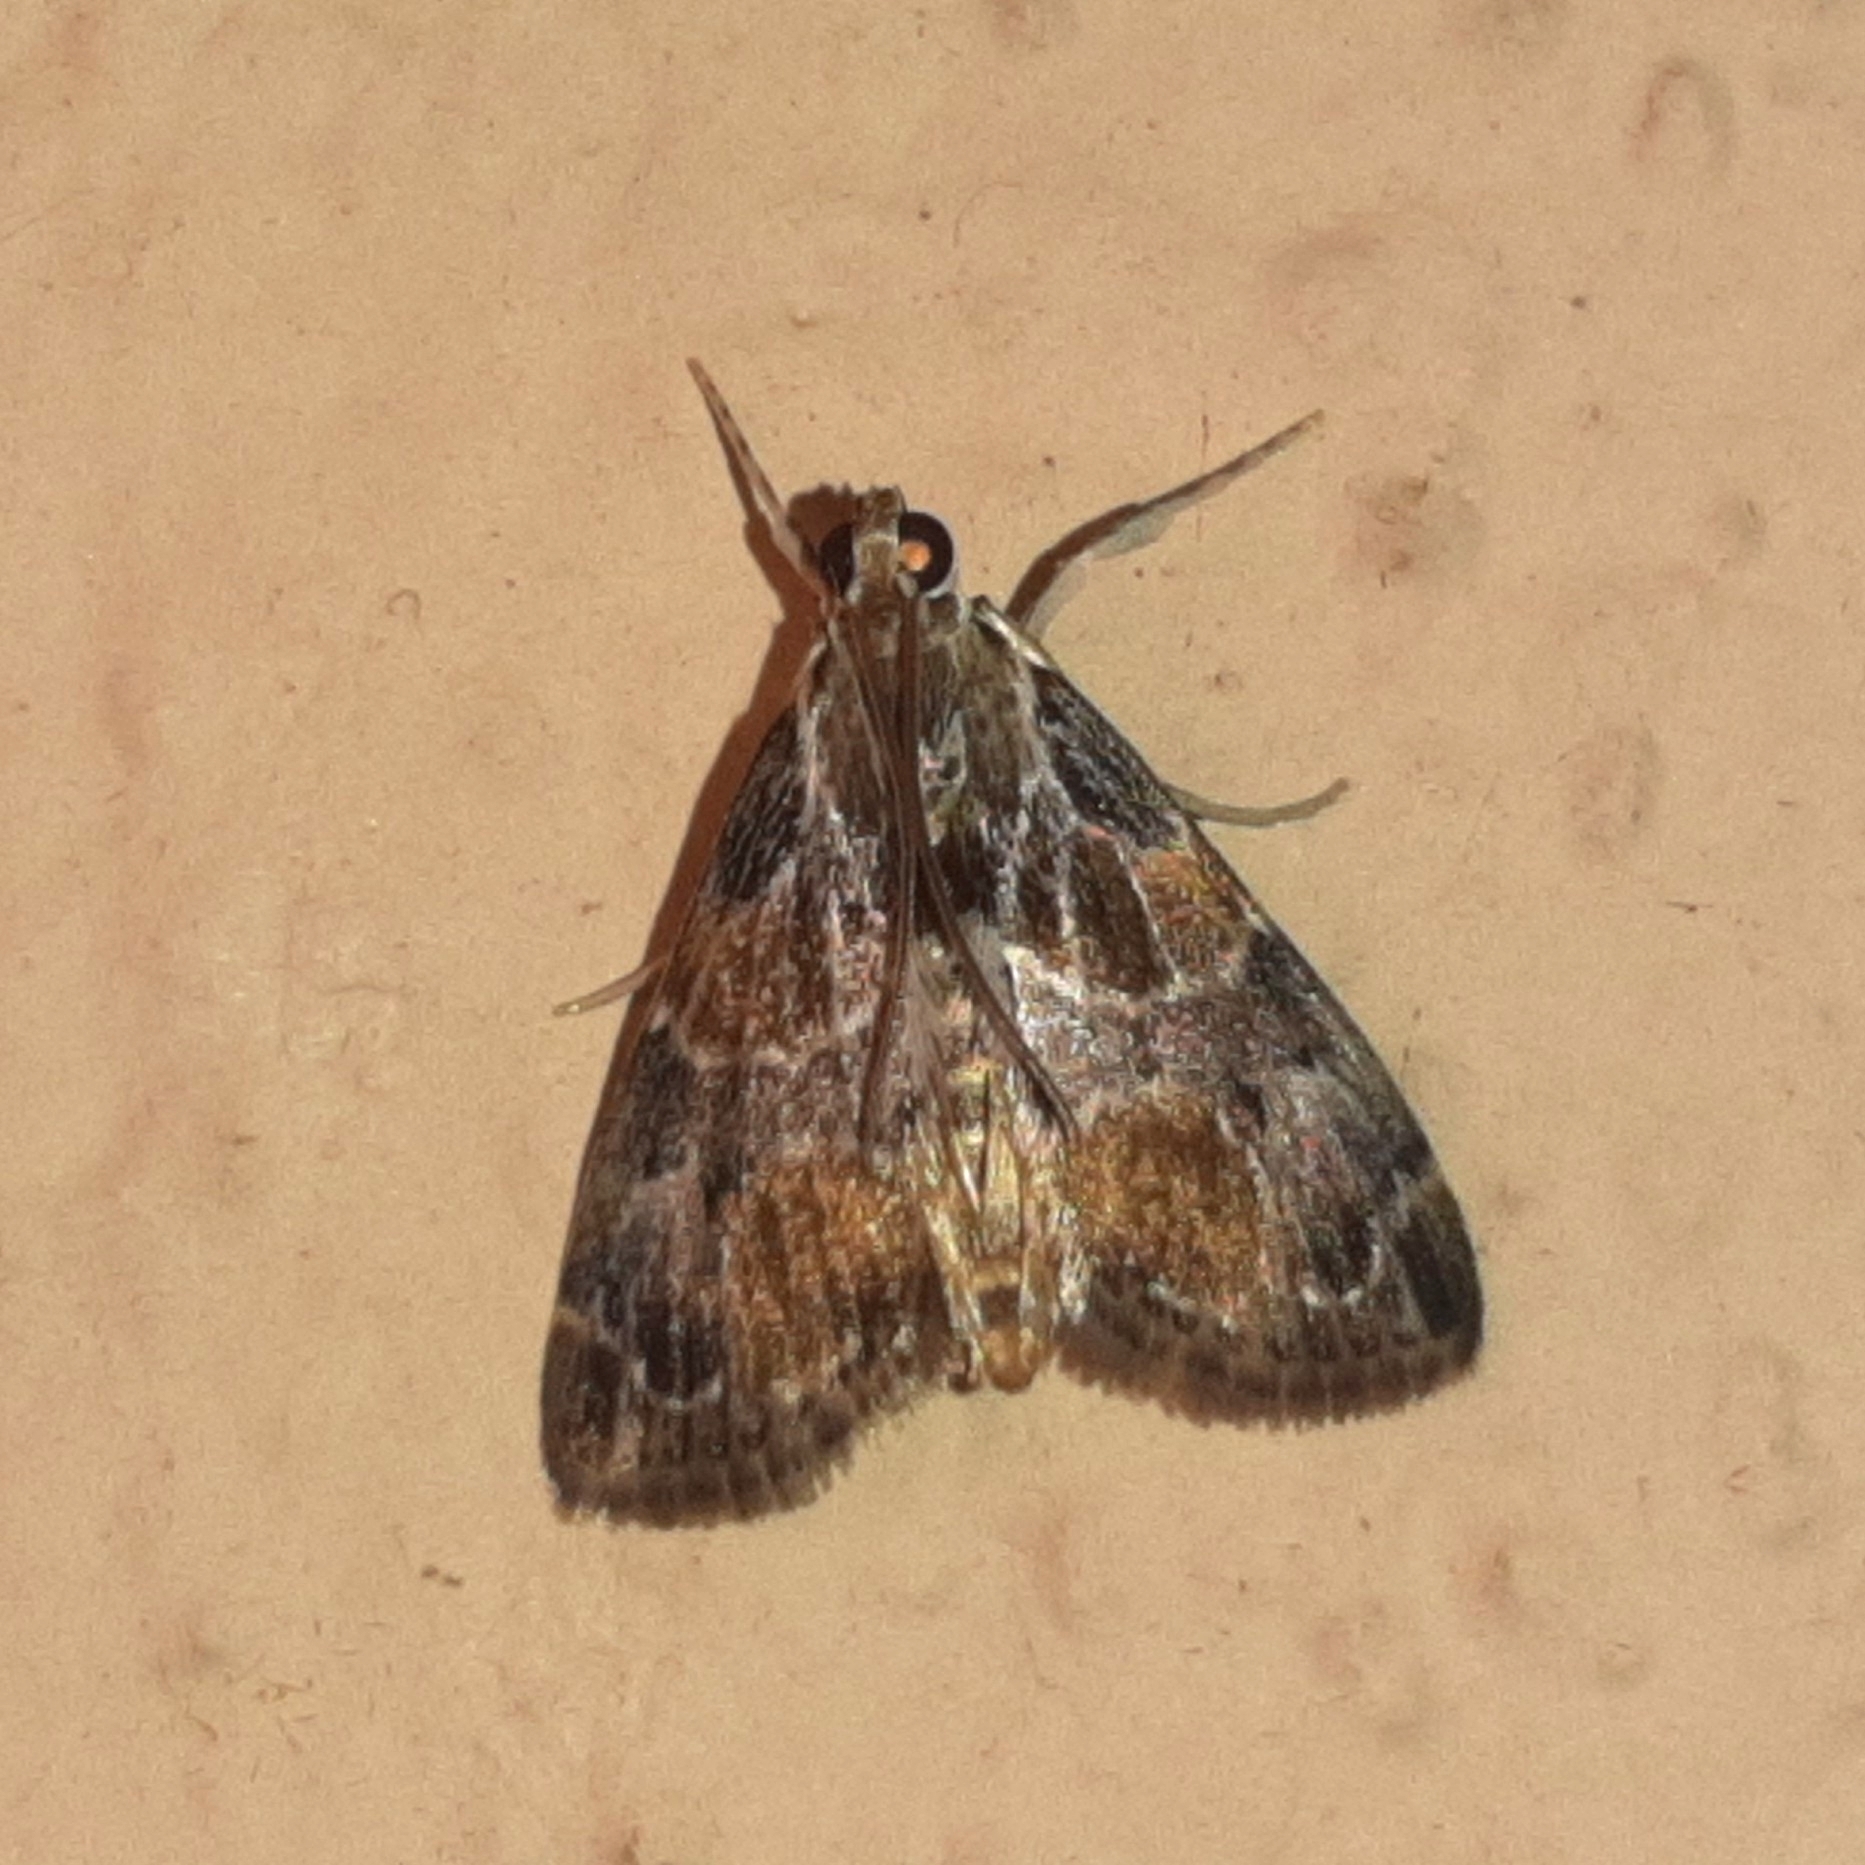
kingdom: Animalia
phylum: Arthropoda
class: Insecta
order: Lepidoptera
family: Crambidae
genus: Eupoca
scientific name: Eupoca bifascialis
